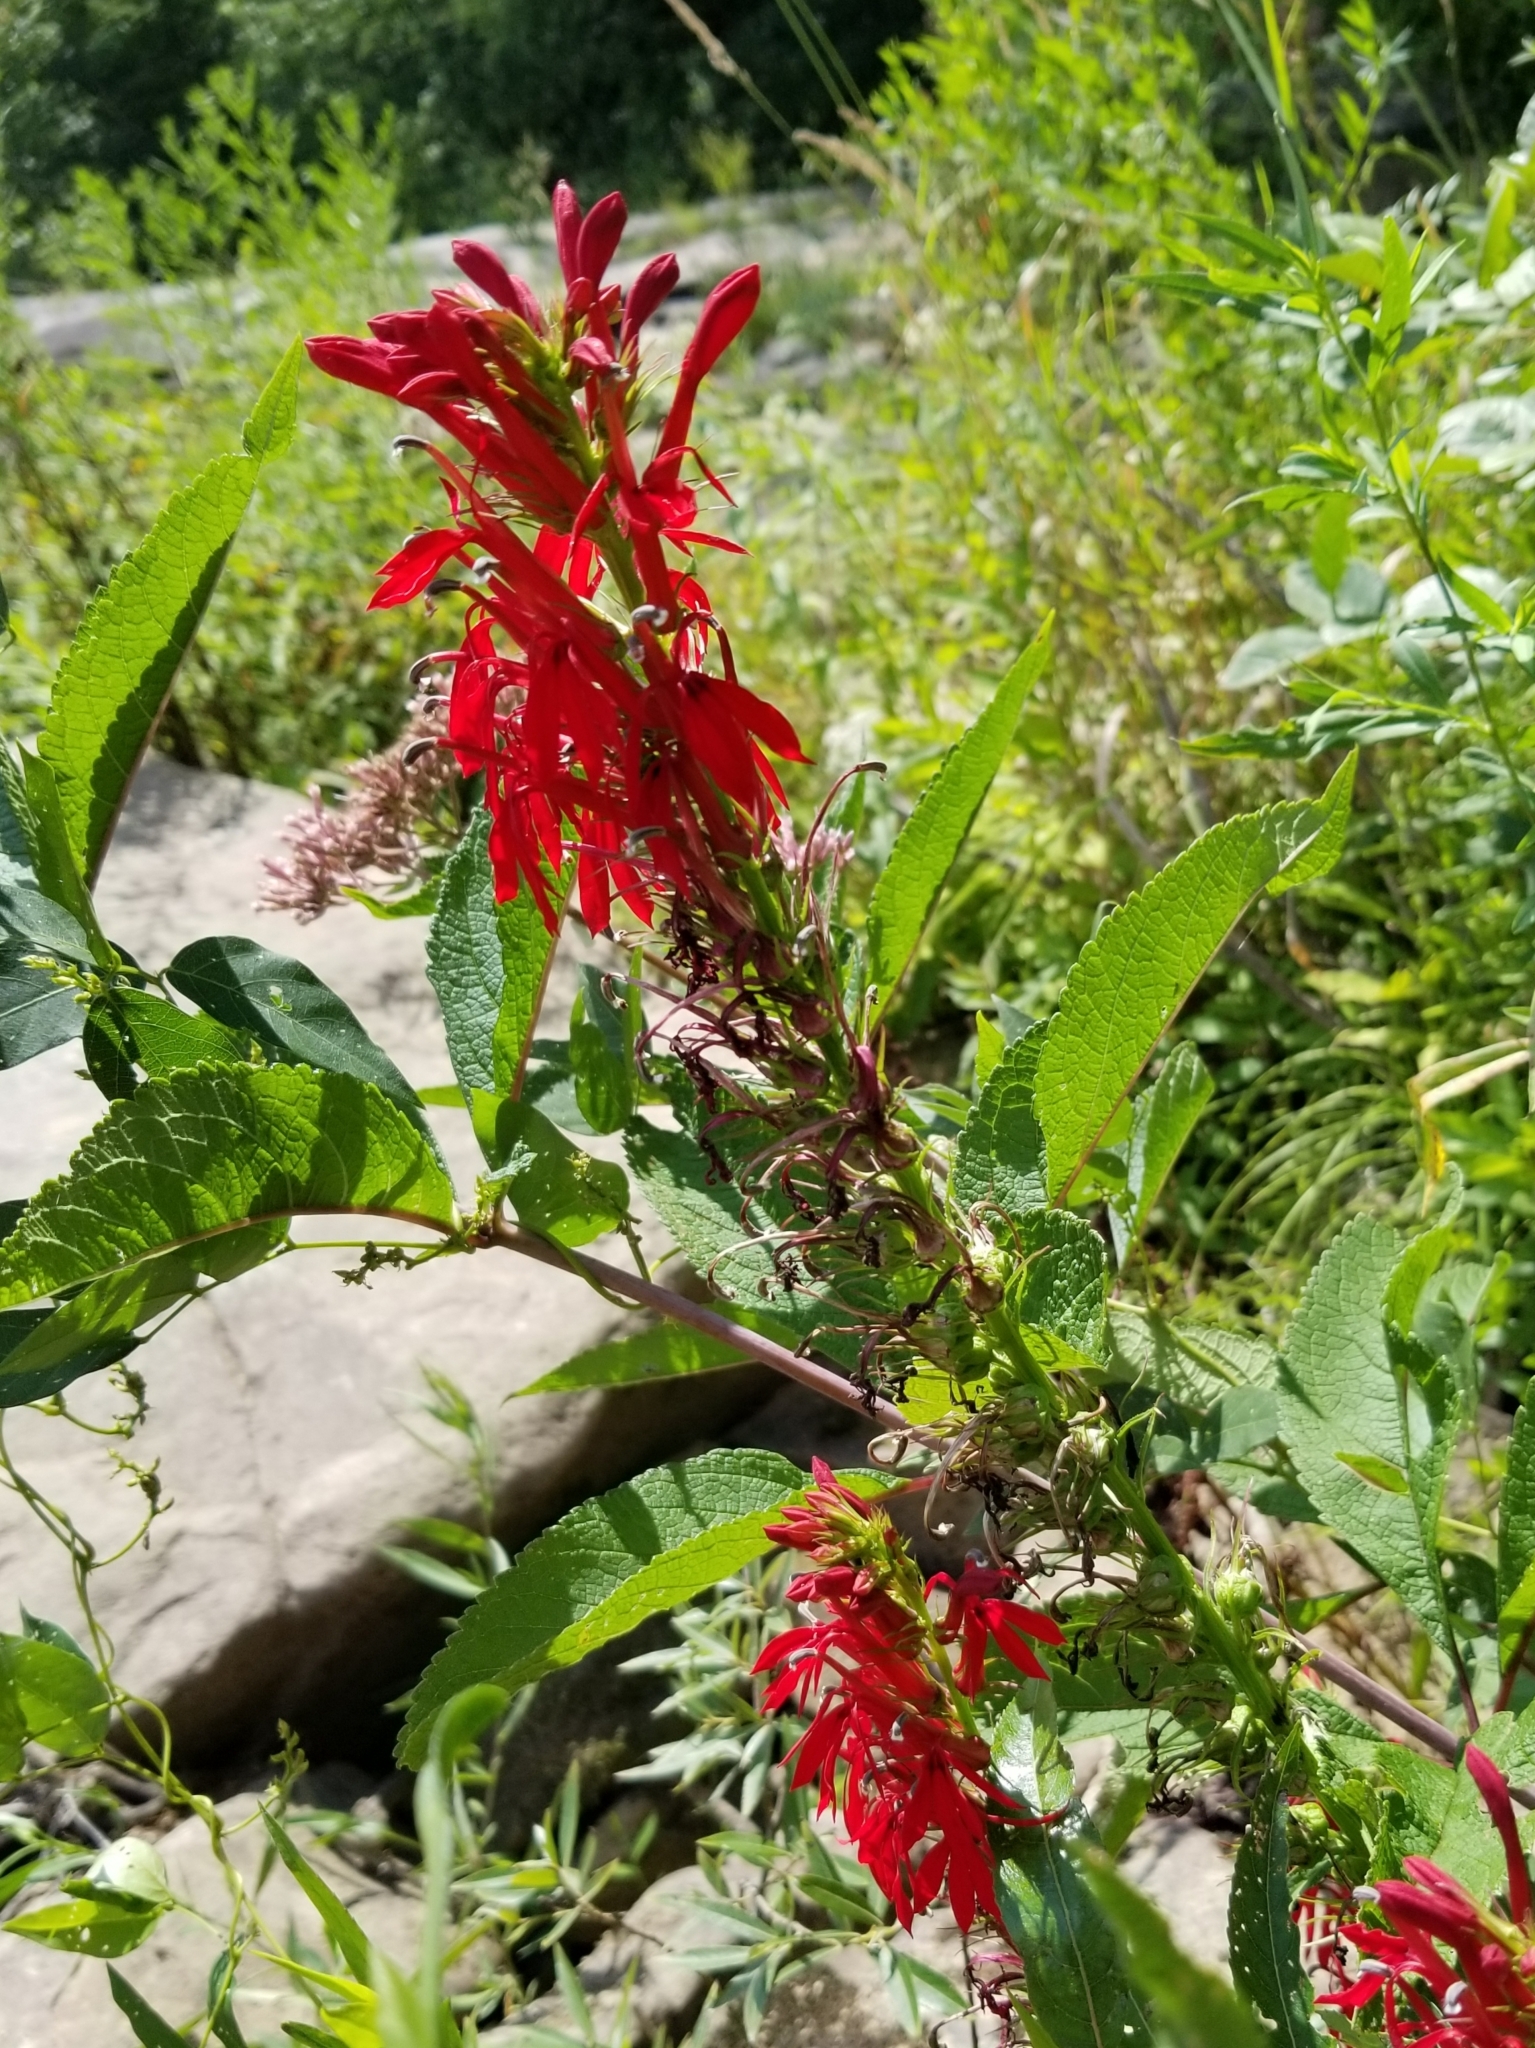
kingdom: Plantae
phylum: Tracheophyta
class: Magnoliopsida
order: Asterales
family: Campanulaceae
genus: Lobelia
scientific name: Lobelia cardinalis
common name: Cardinal flower
